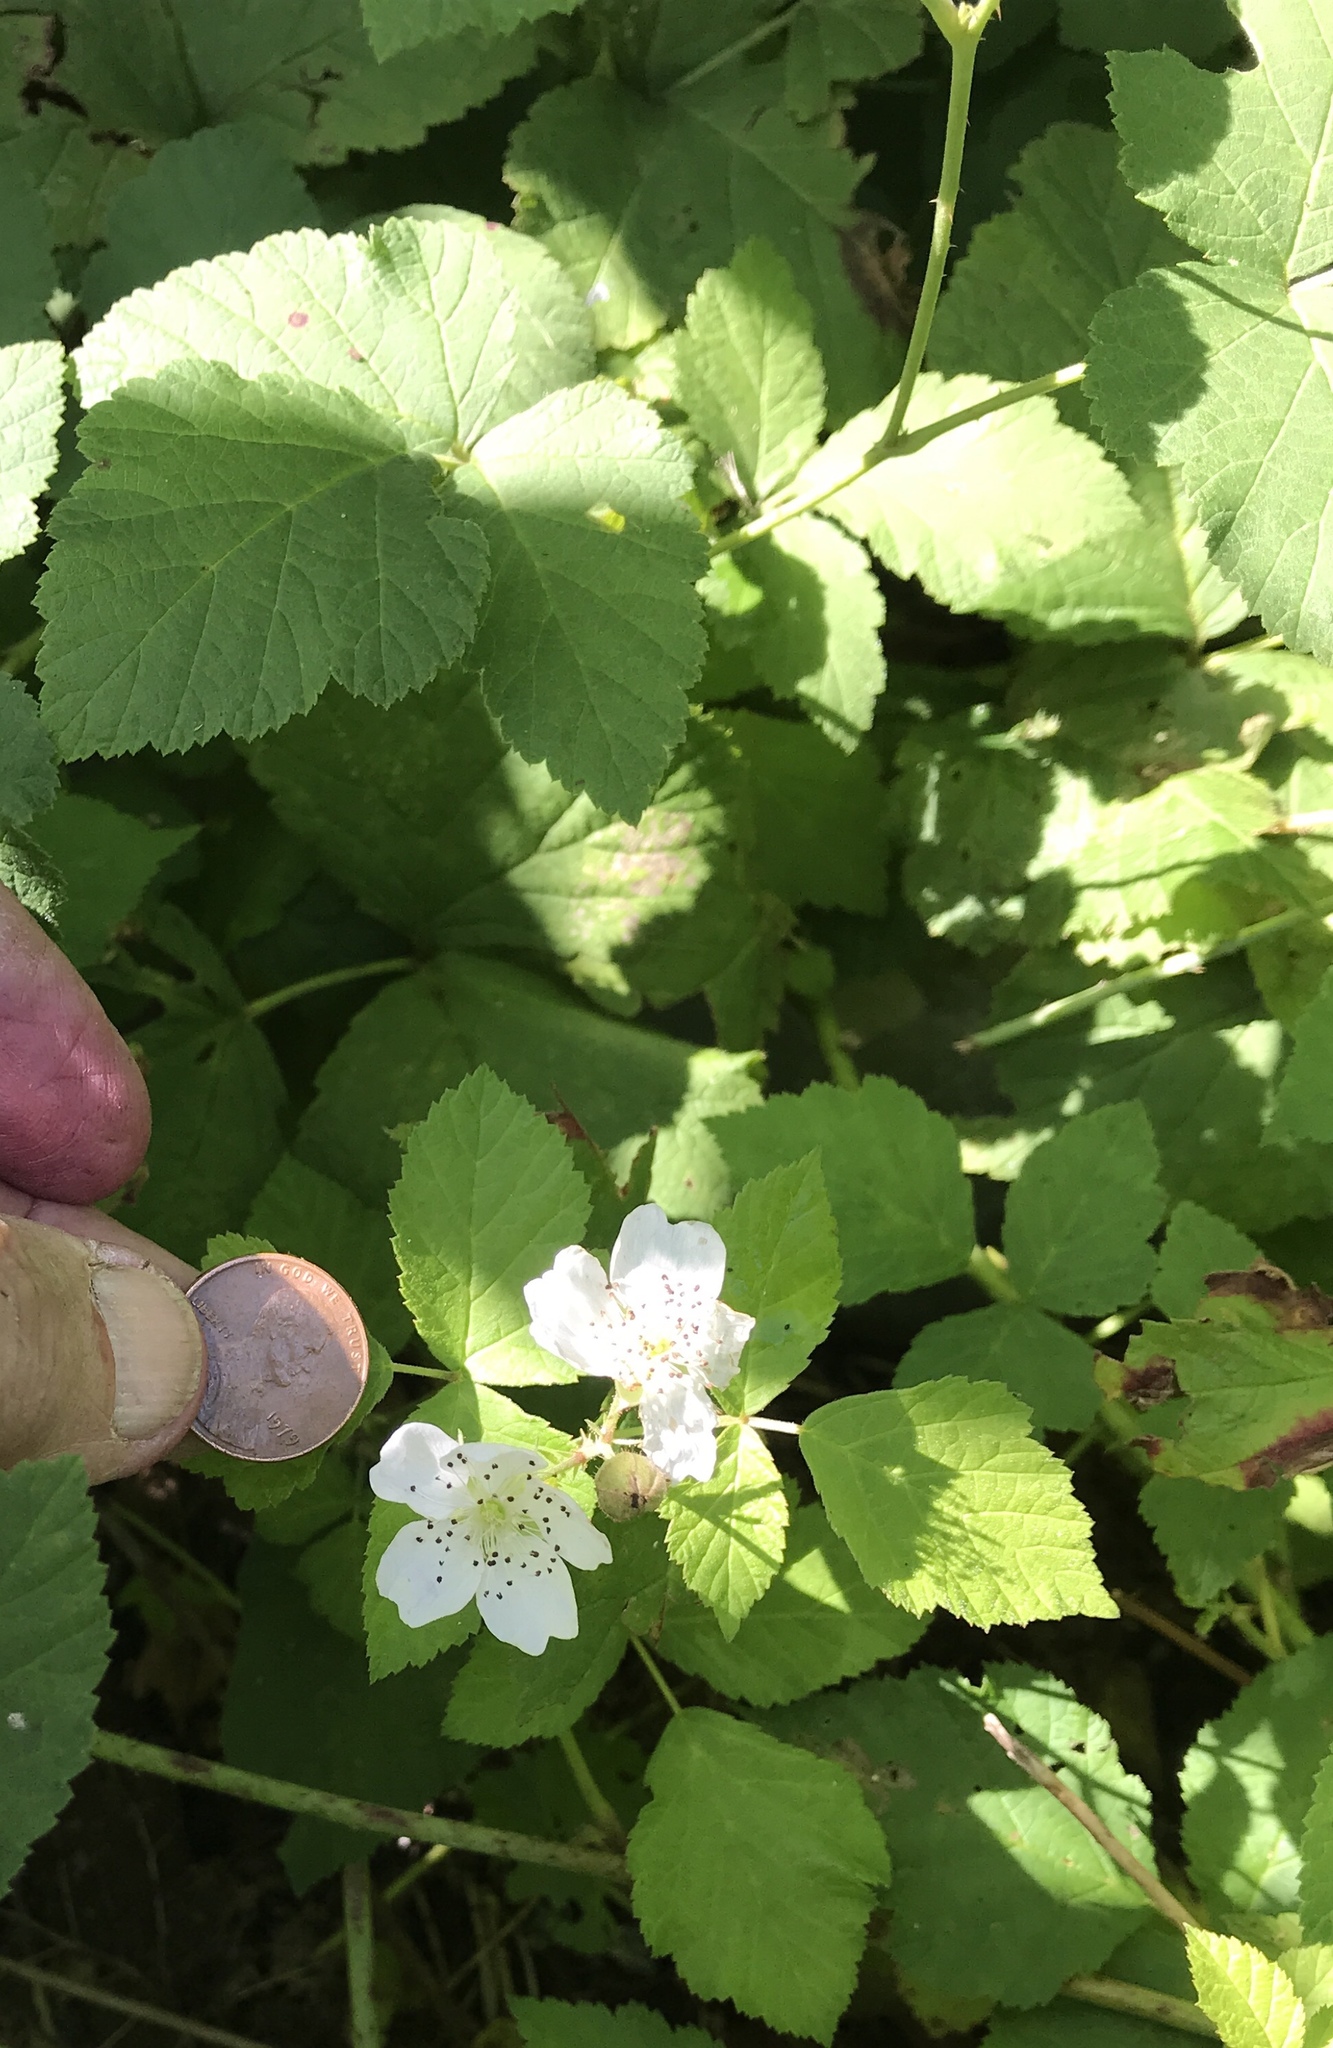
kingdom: Plantae
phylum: Tracheophyta
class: Magnoliopsida
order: Rosales
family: Rosaceae
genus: Rubus
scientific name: Rubus caesius
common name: Dewberry
